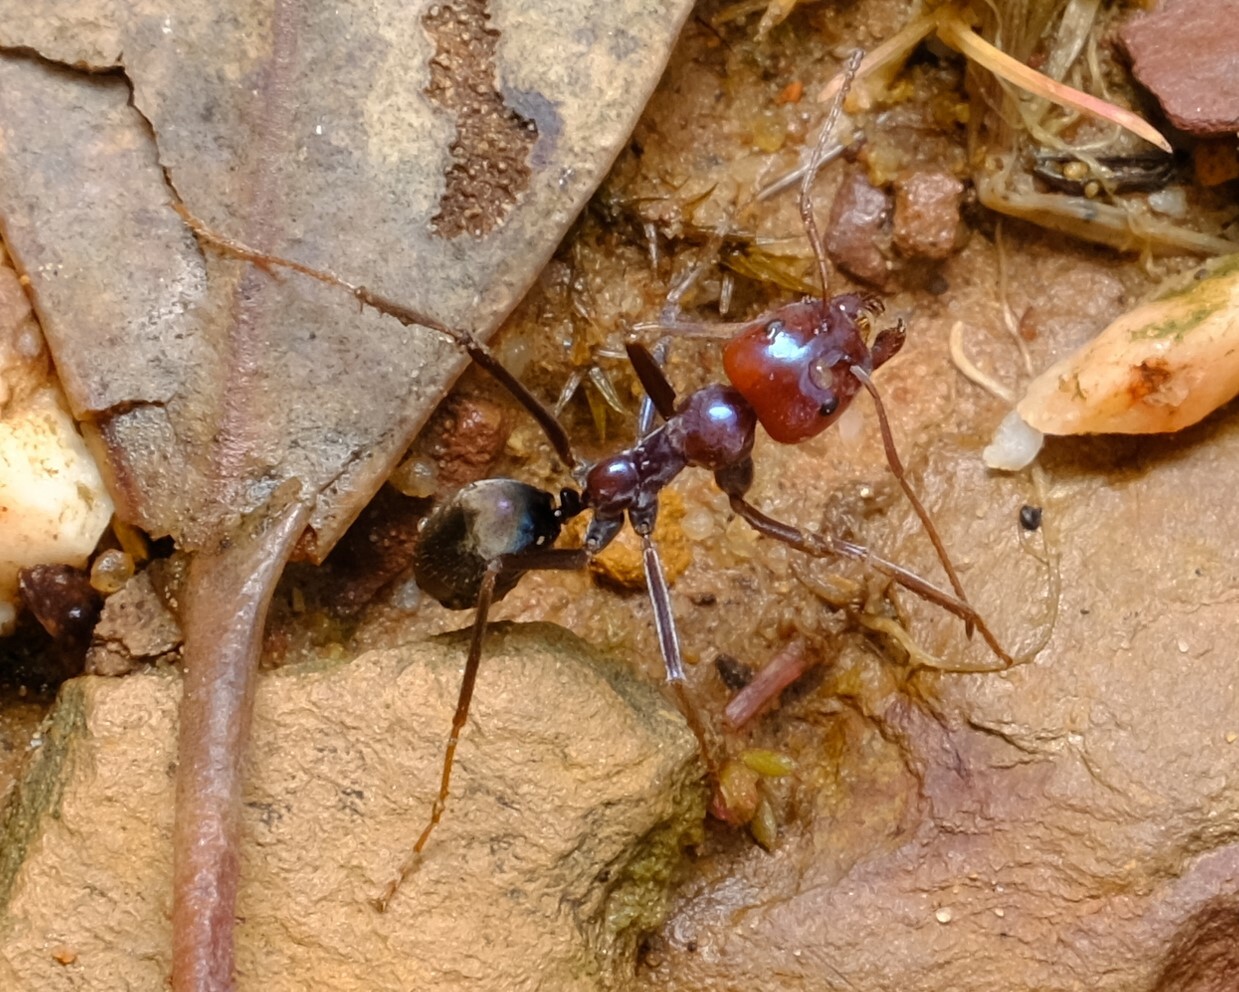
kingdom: Animalia
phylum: Arthropoda
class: Insecta
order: Hymenoptera
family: Formicidae
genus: Iridomyrmex
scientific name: Iridomyrmex purpureus
